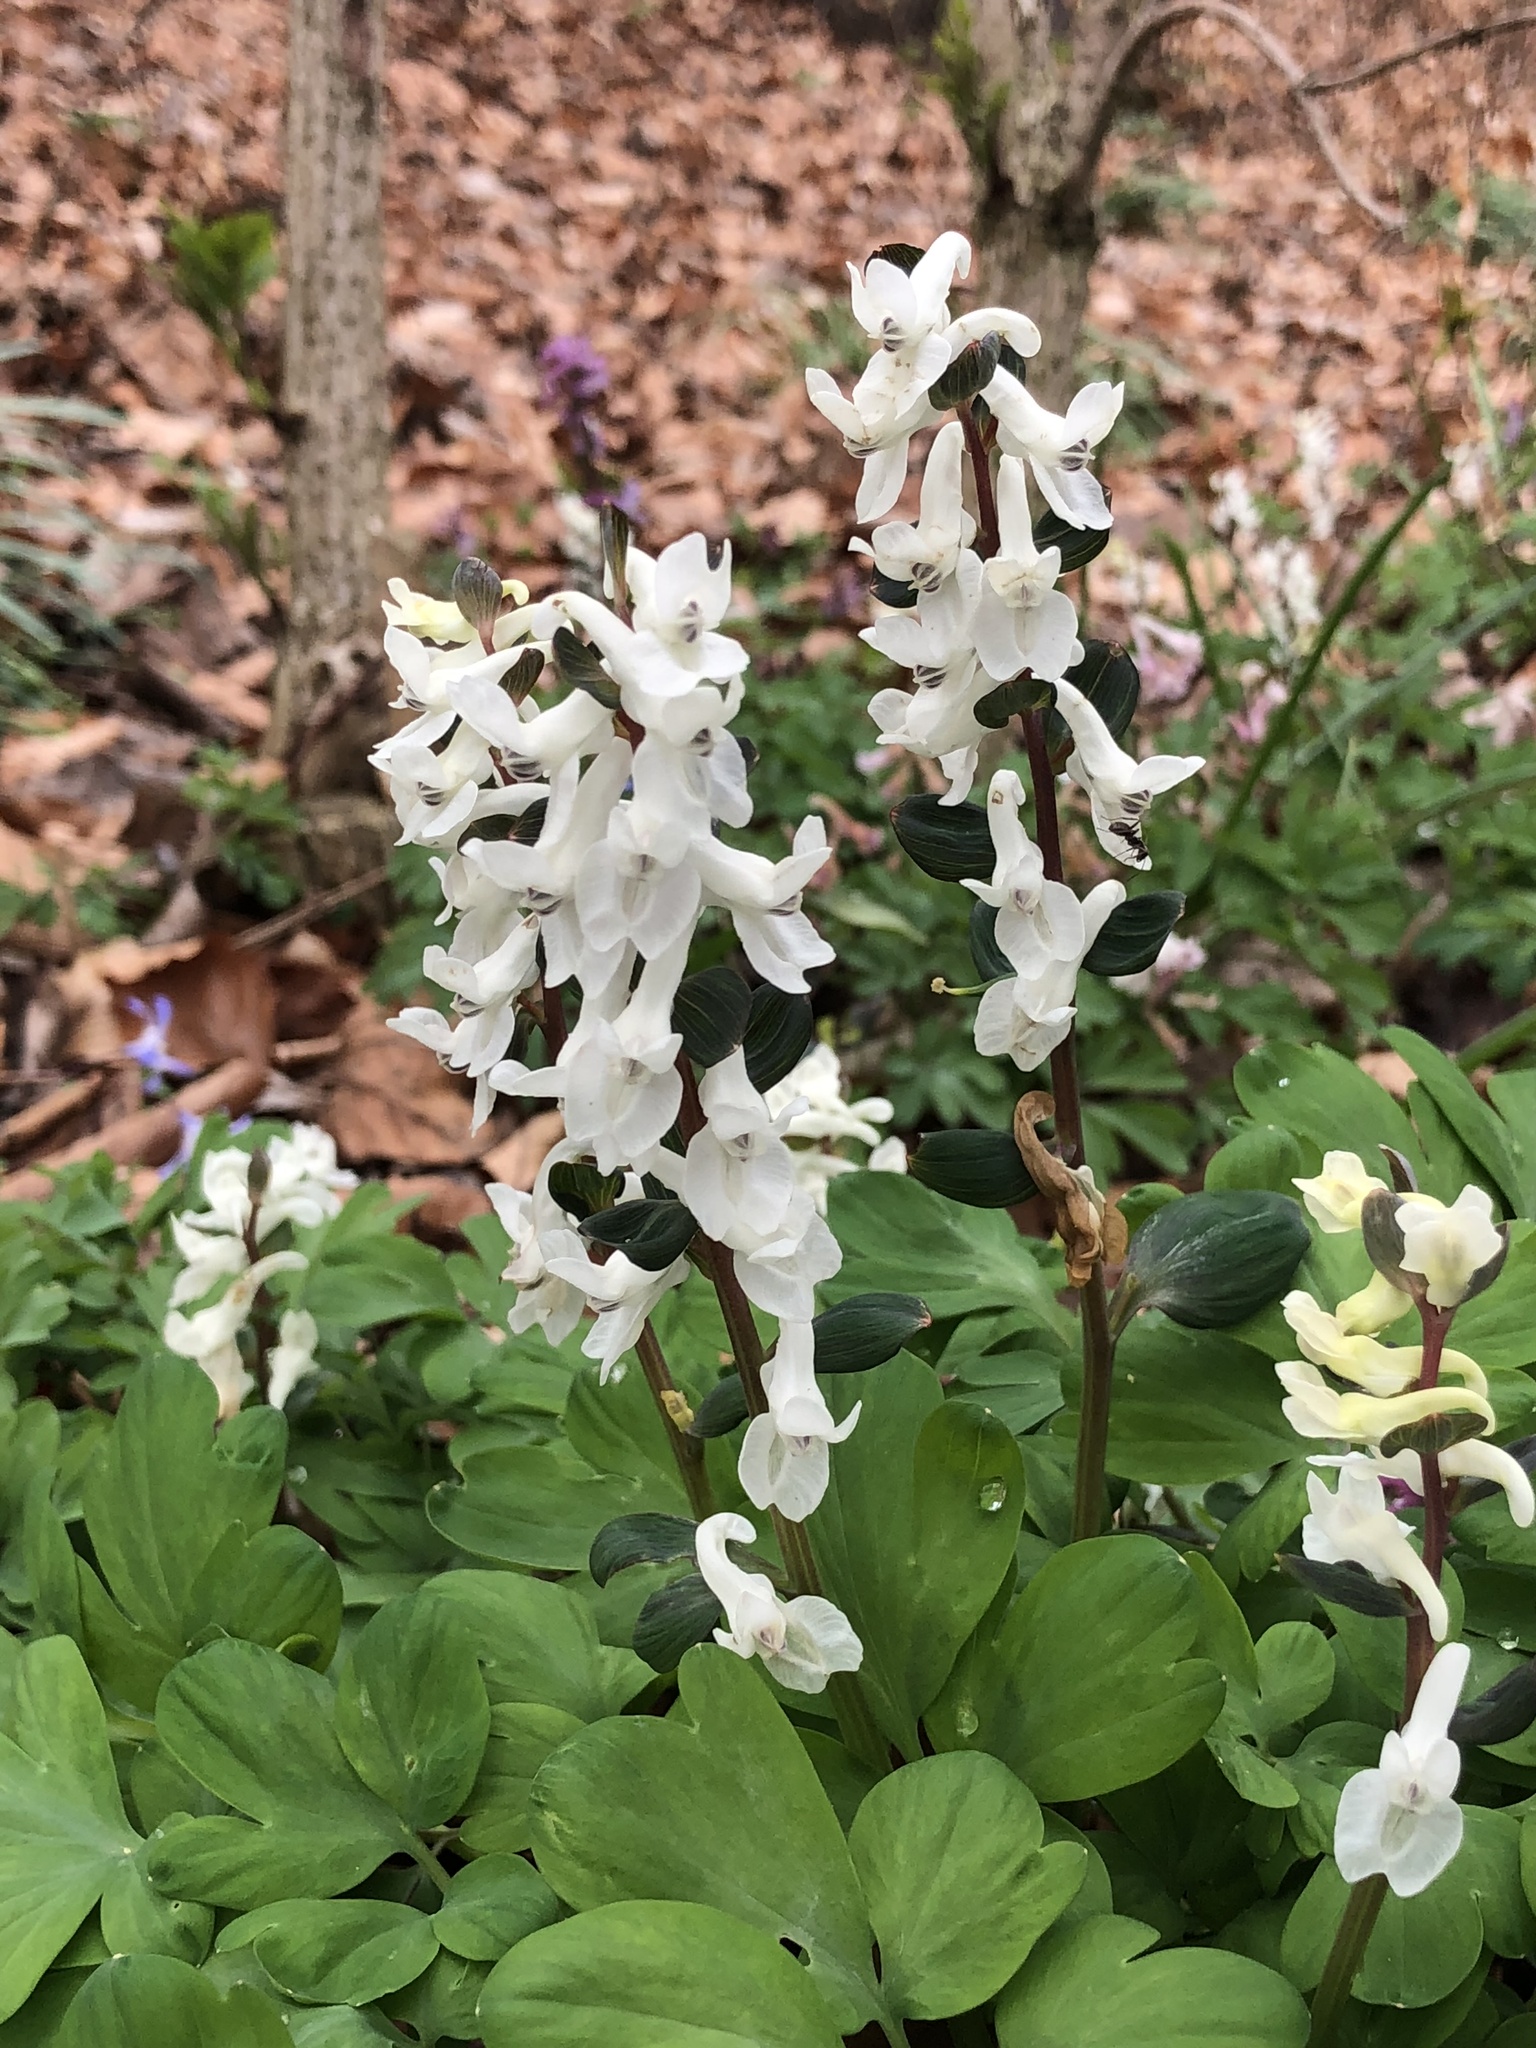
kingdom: Plantae
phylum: Tracheophyta
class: Magnoliopsida
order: Ranunculales
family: Papaveraceae
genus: Corydalis
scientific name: Corydalis cava
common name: Hollowroot
